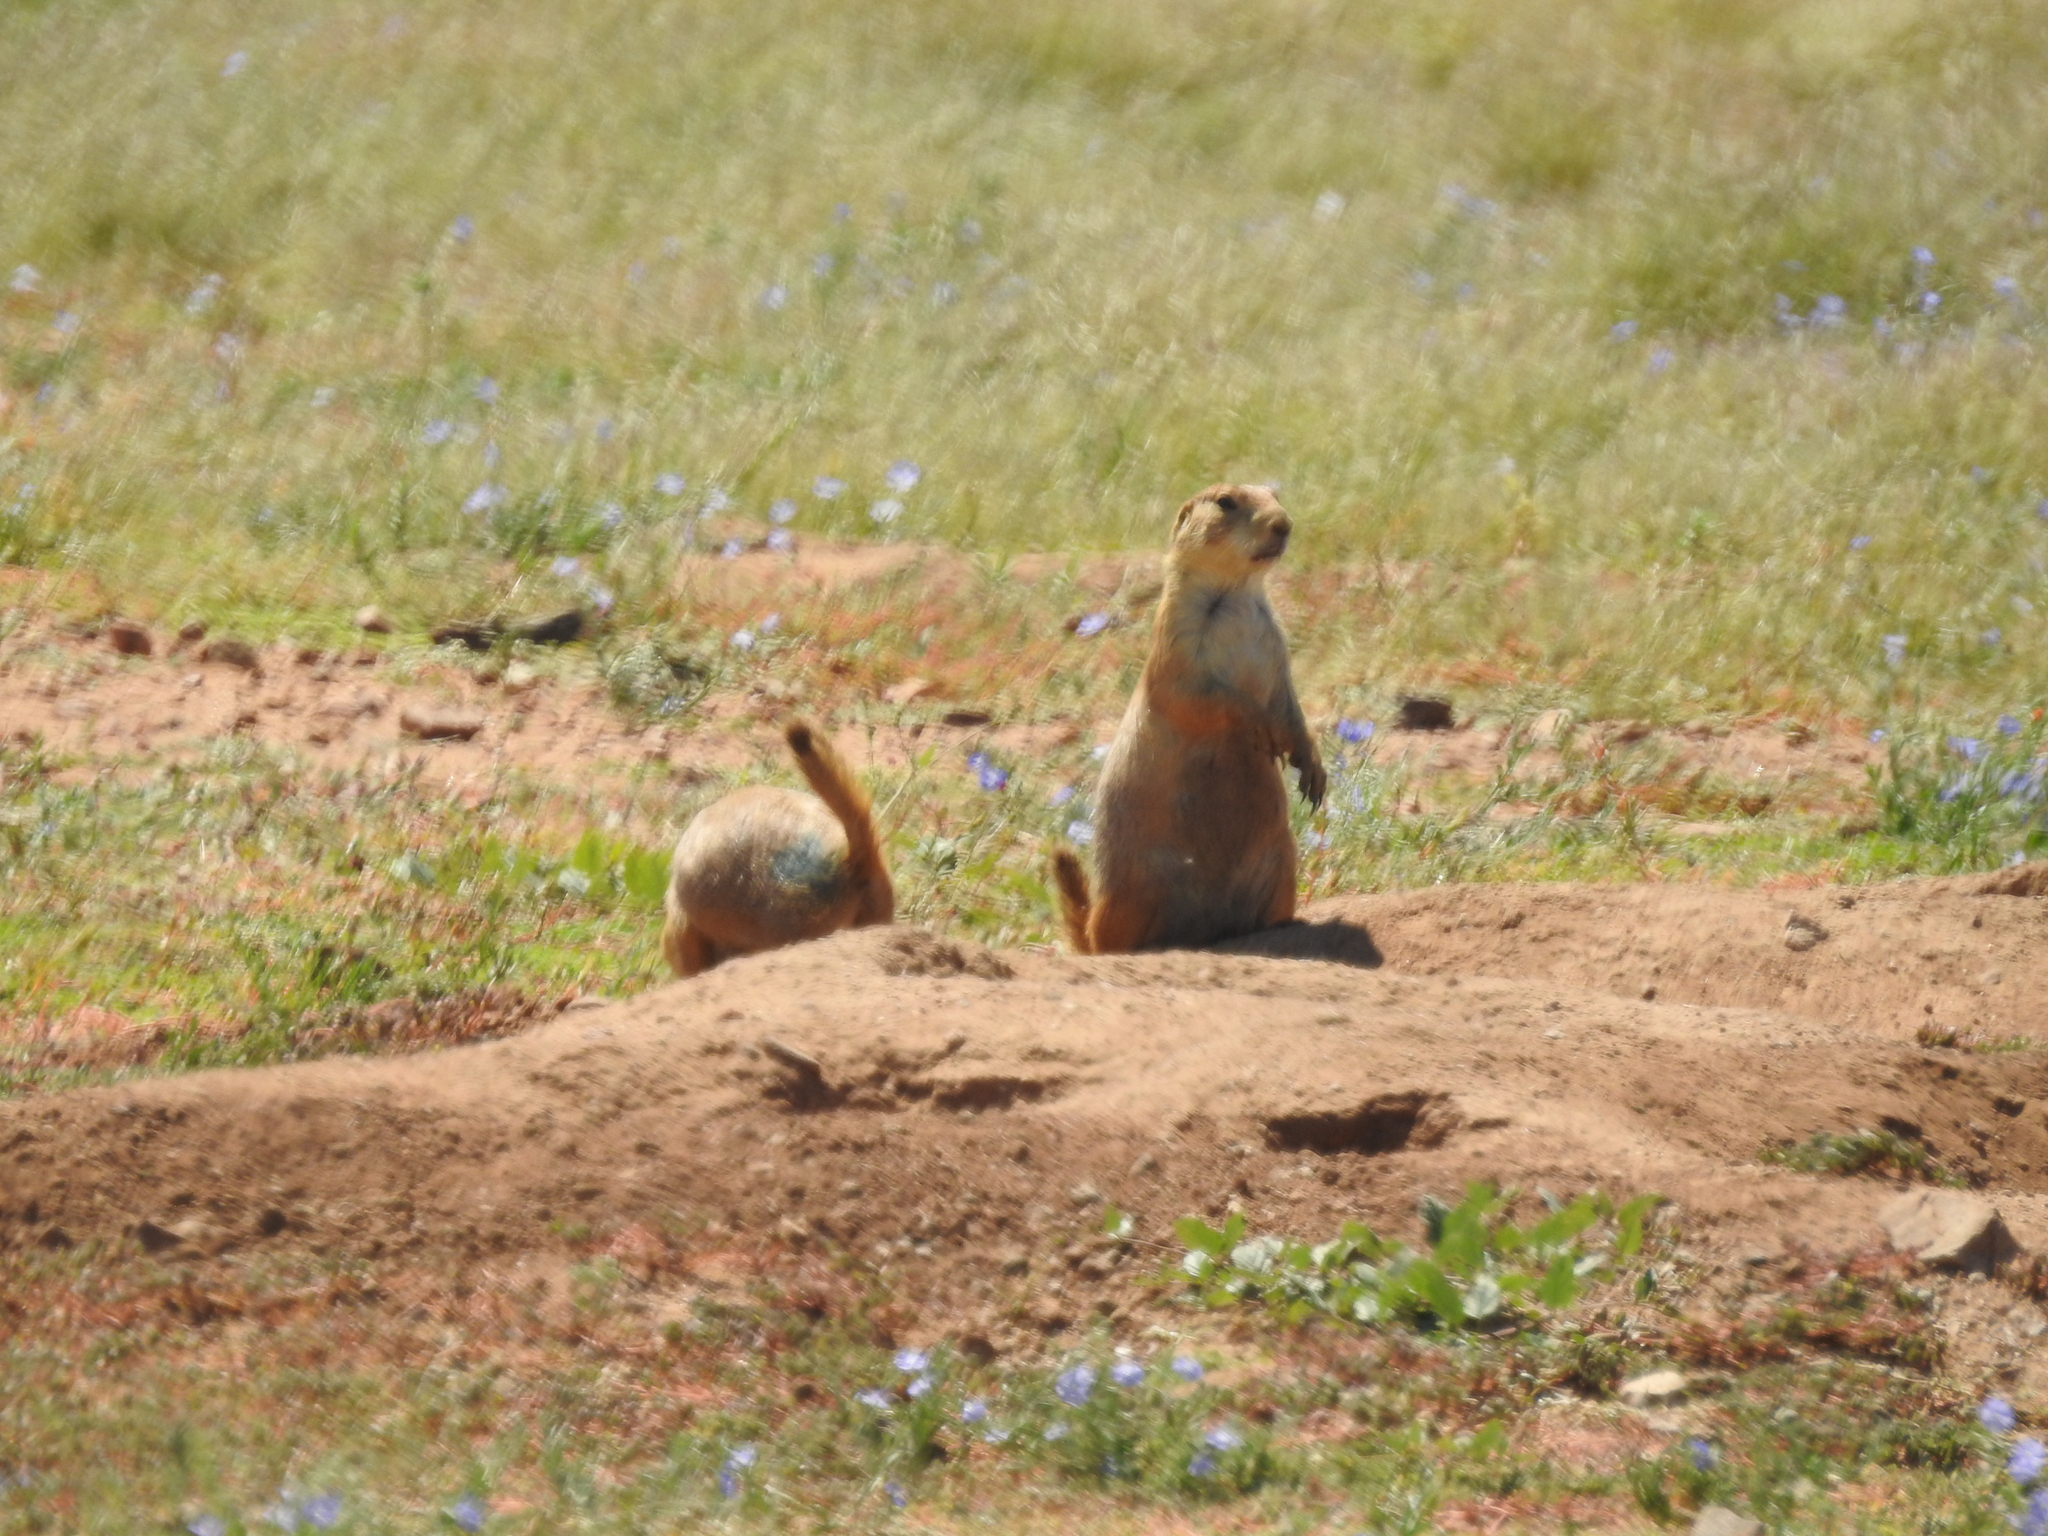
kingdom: Animalia
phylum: Chordata
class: Mammalia
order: Rodentia
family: Sciuridae
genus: Cynomys
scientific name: Cynomys ludovicianus
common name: Black-tailed prairie dog
